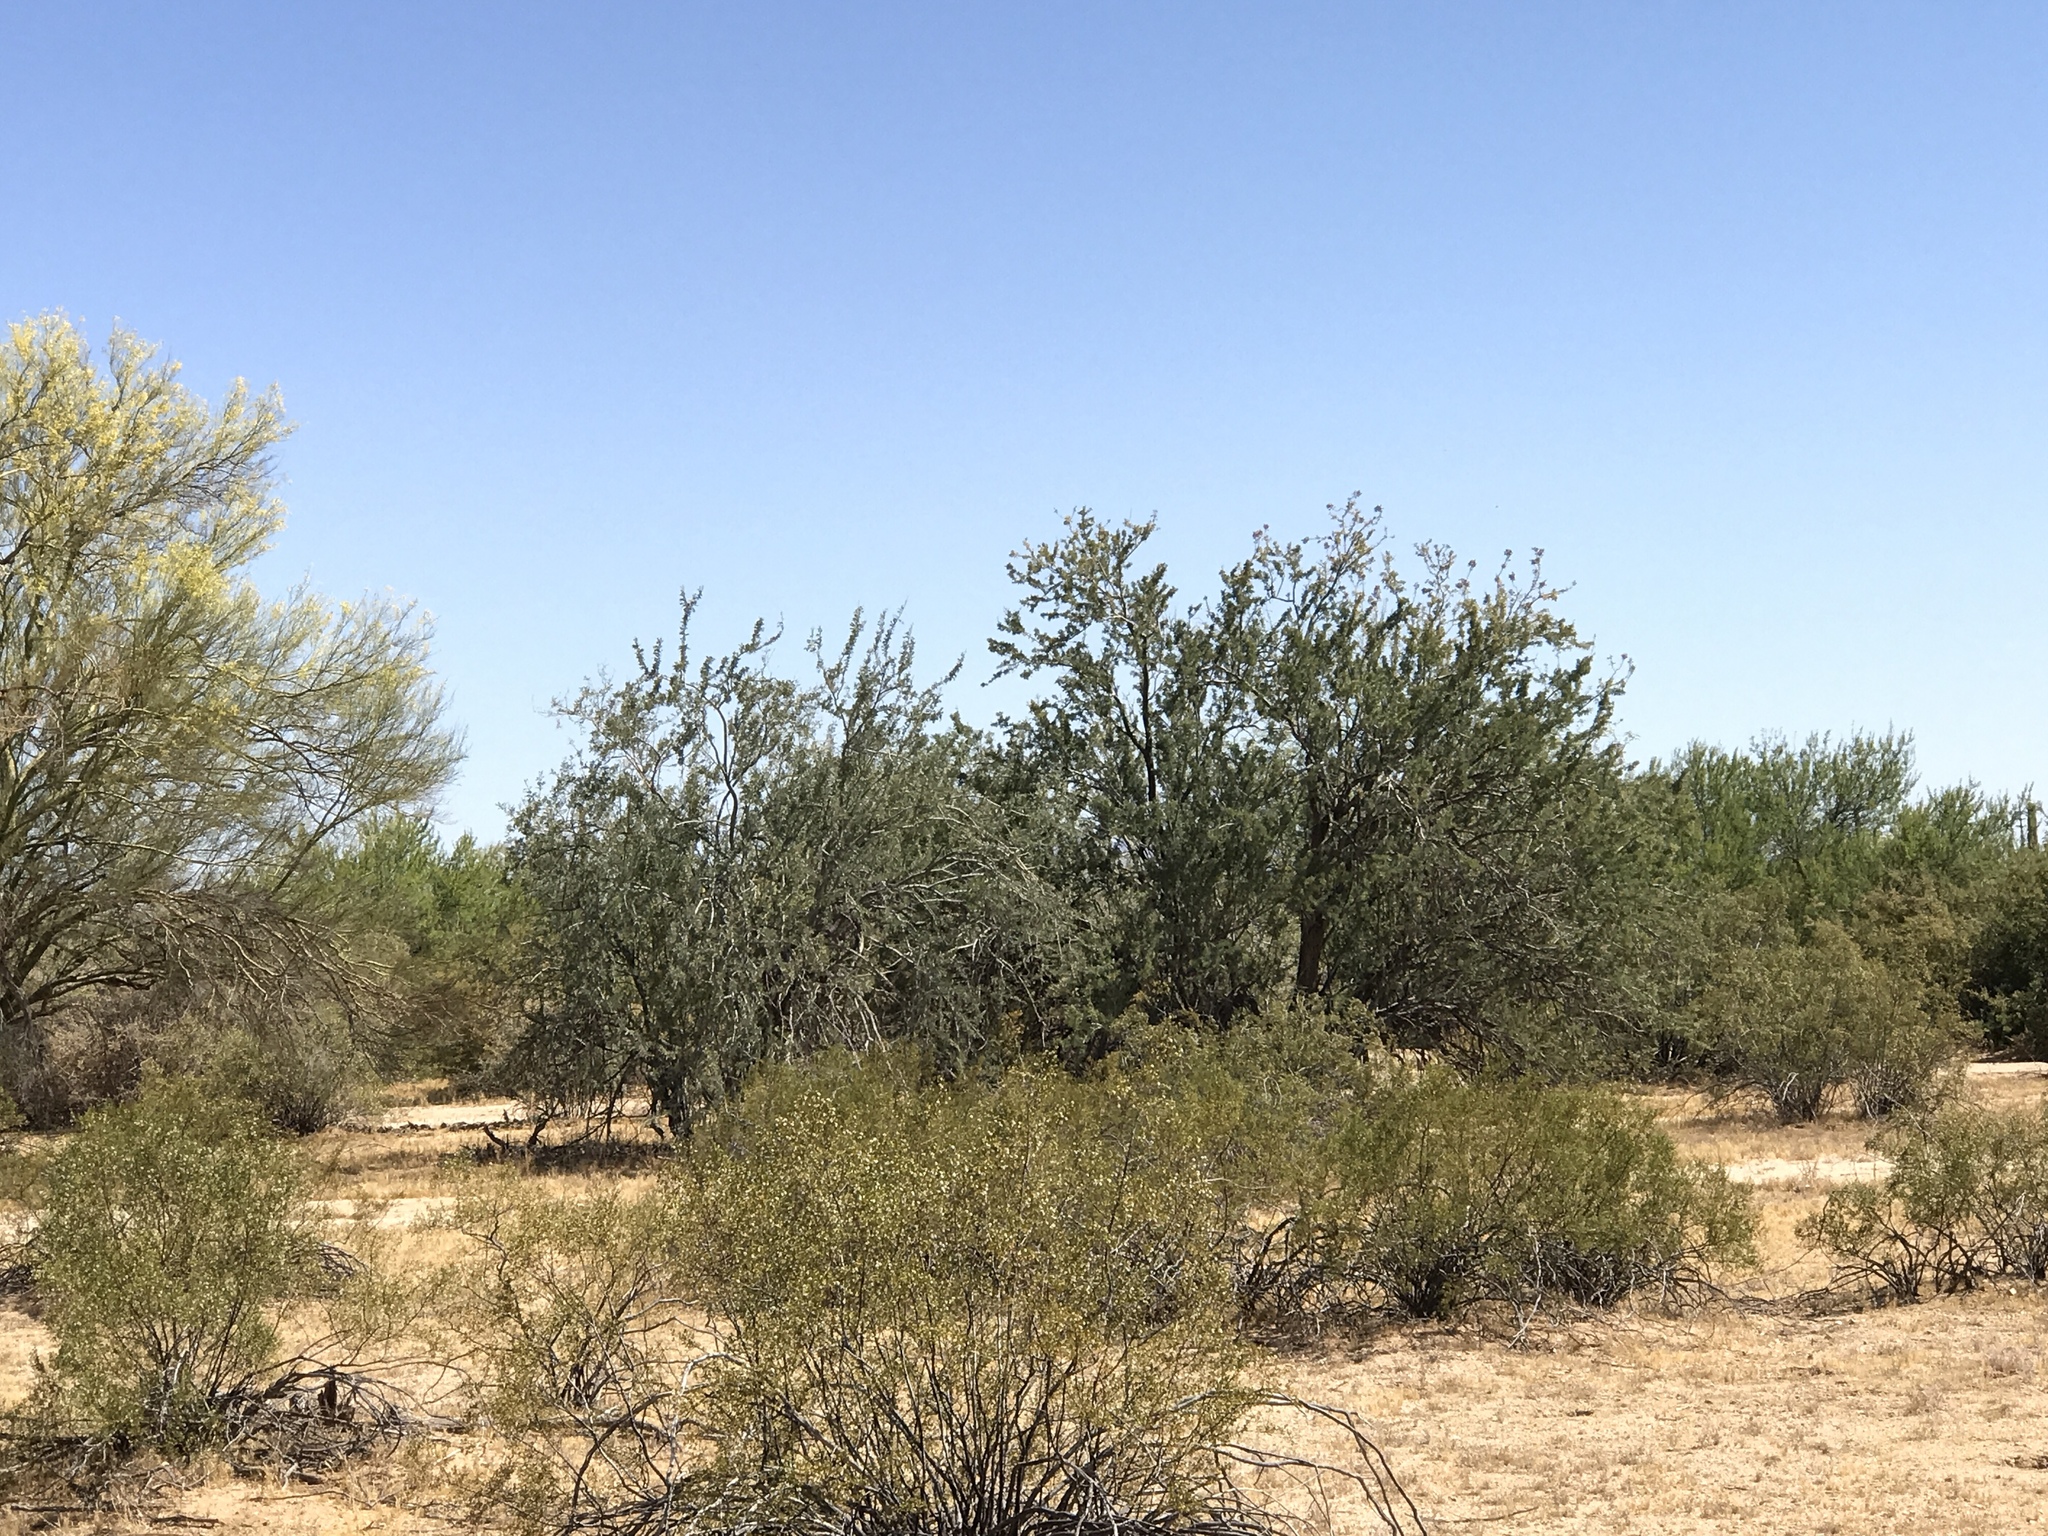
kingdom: Plantae
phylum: Tracheophyta
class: Magnoliopsida
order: Fabales
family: Fabaceae
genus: Olneya
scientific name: Olneya tesota
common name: Desert ironwood
